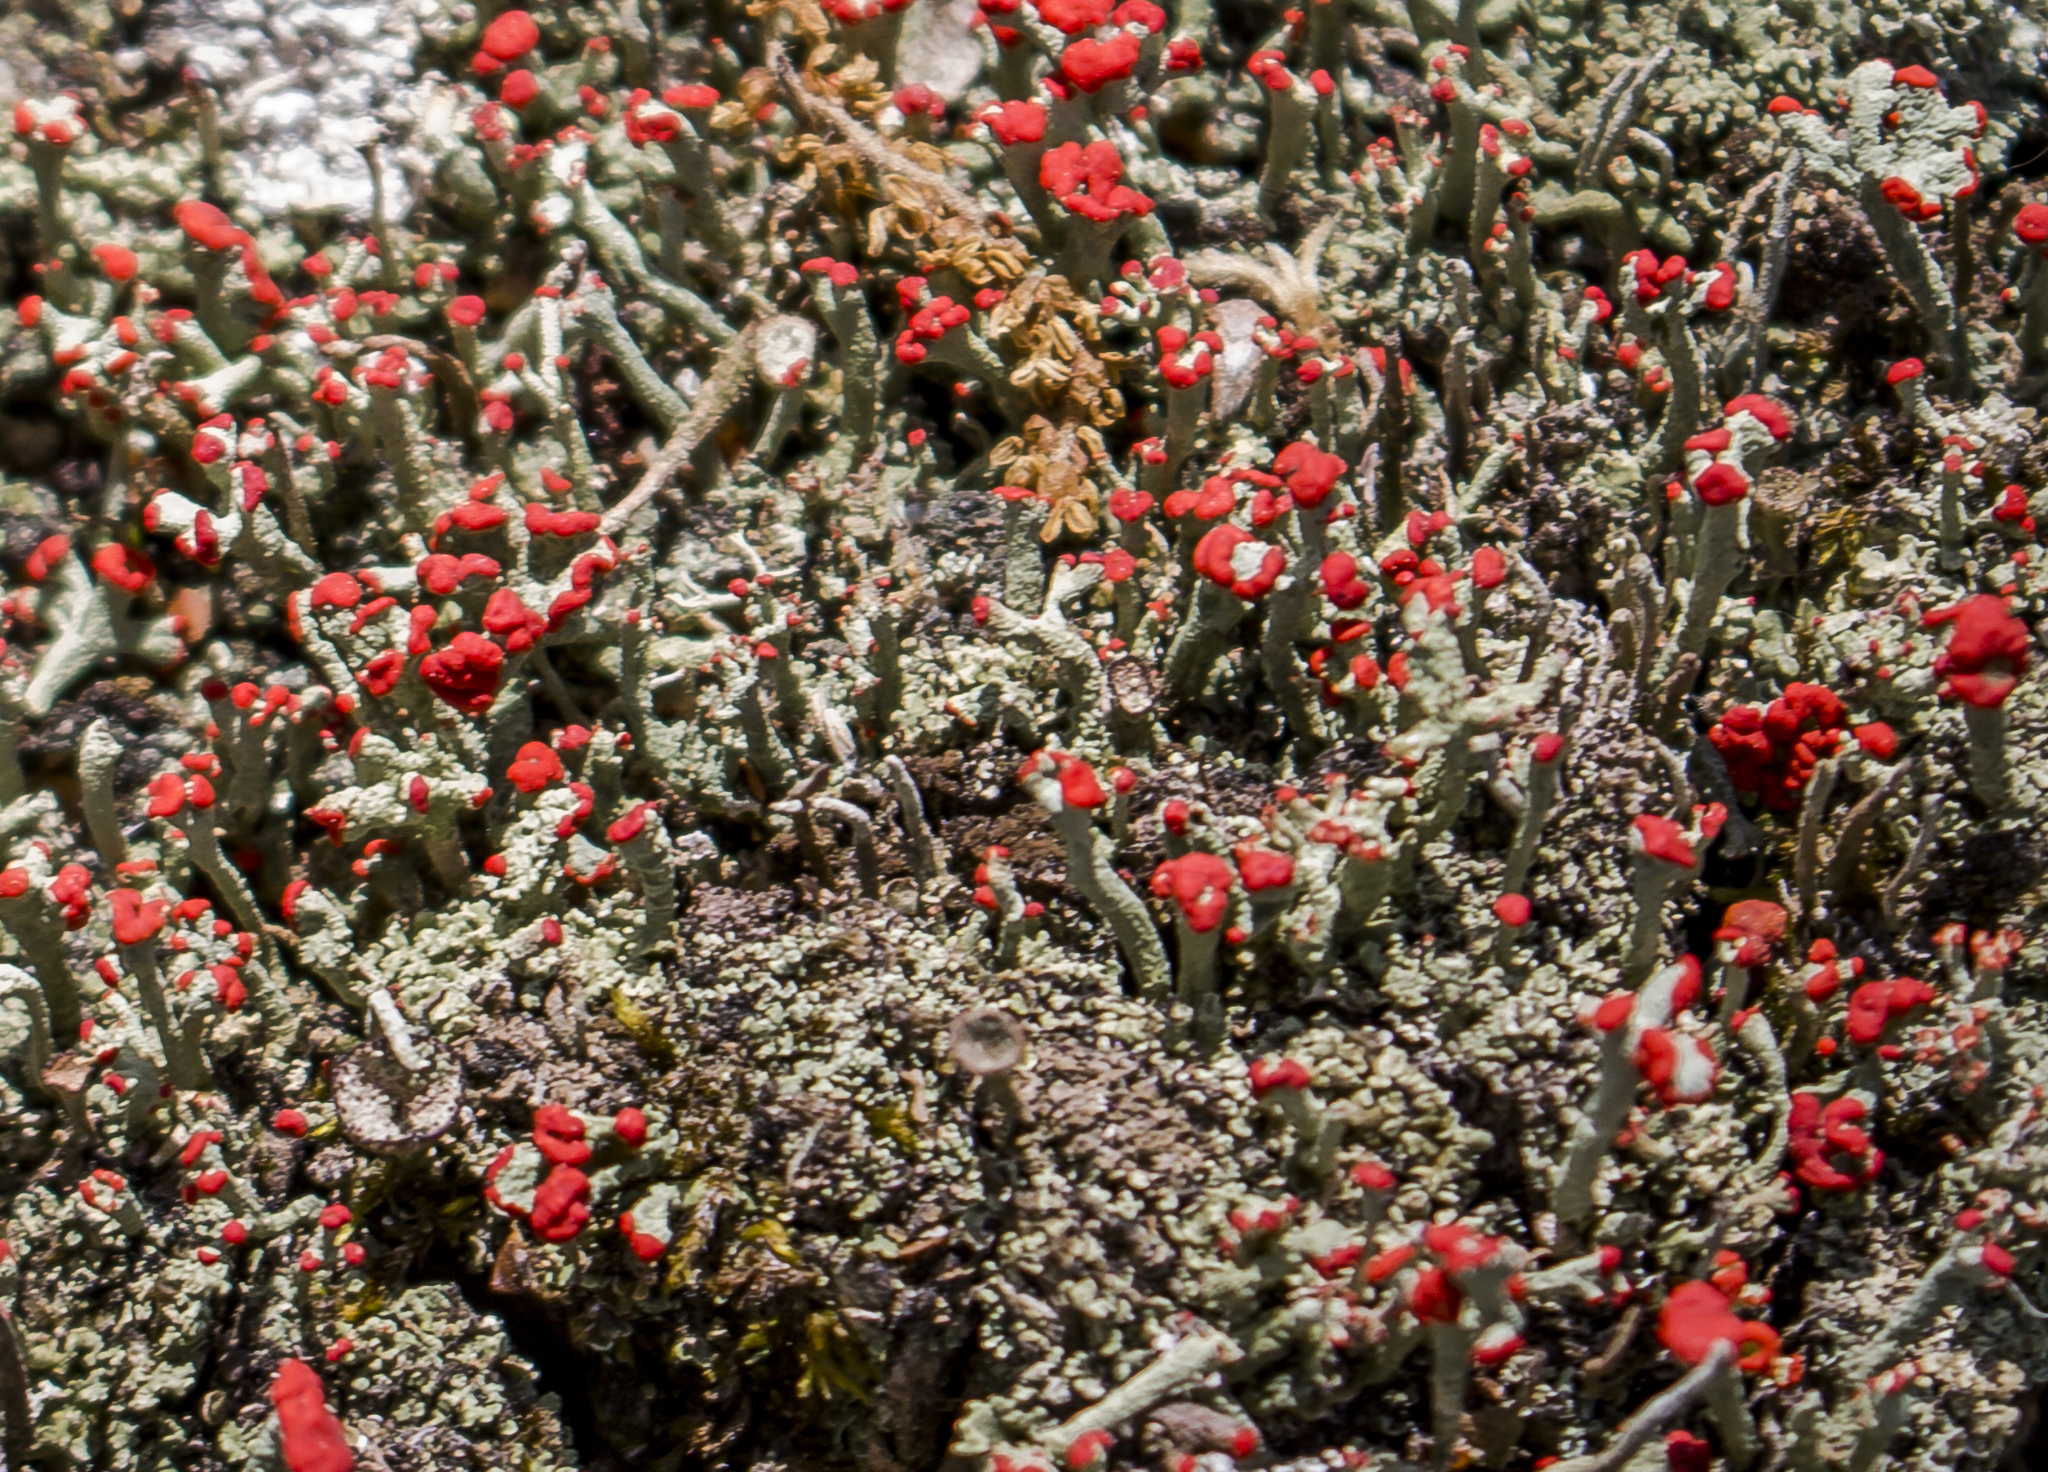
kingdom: Fungi
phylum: Ascomycota
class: Lecanoromycetes
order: Lecanorales
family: Cladoniaceae
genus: Cladonia
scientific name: Cladonia cristatella
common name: British soldier lichen
